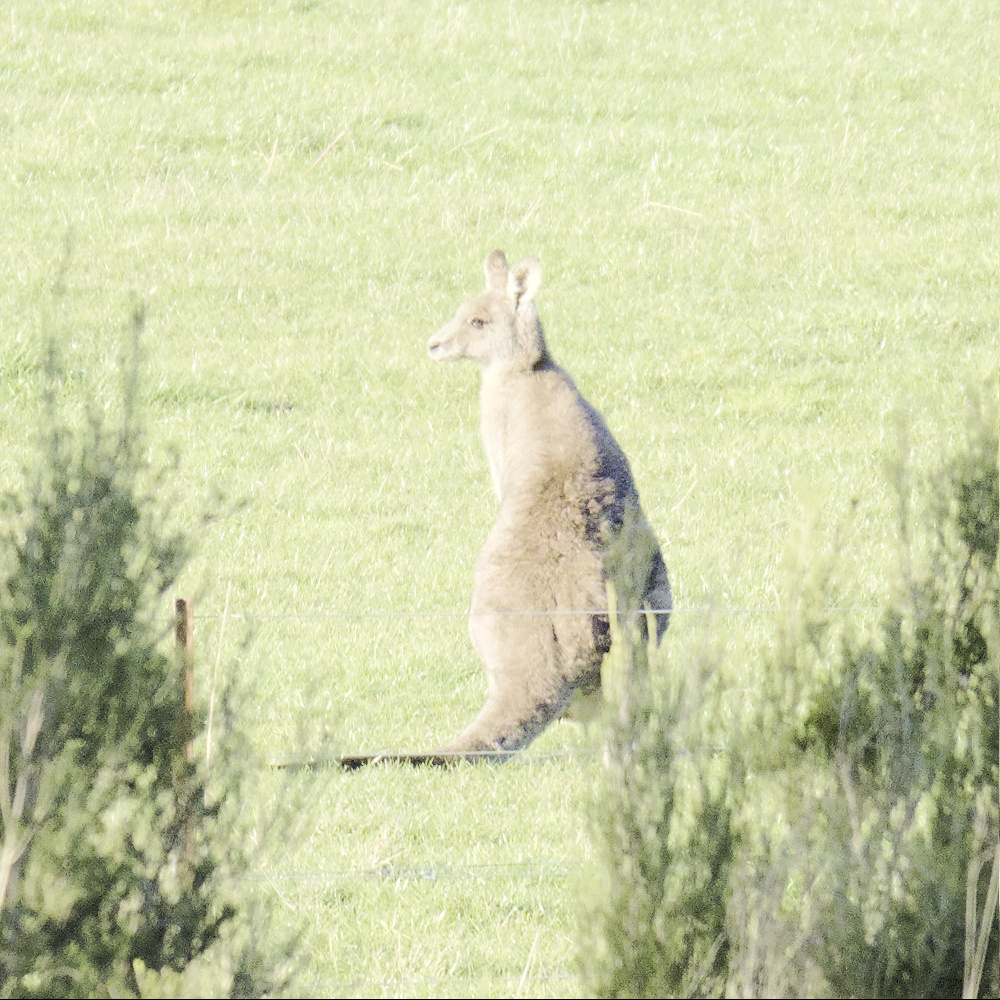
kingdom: Animalia
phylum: Chordata
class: Mammalia
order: Diprotodontia
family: Macropodidae
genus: Macropus
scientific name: Macropus giganteus
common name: Eastern grey kangaroo
